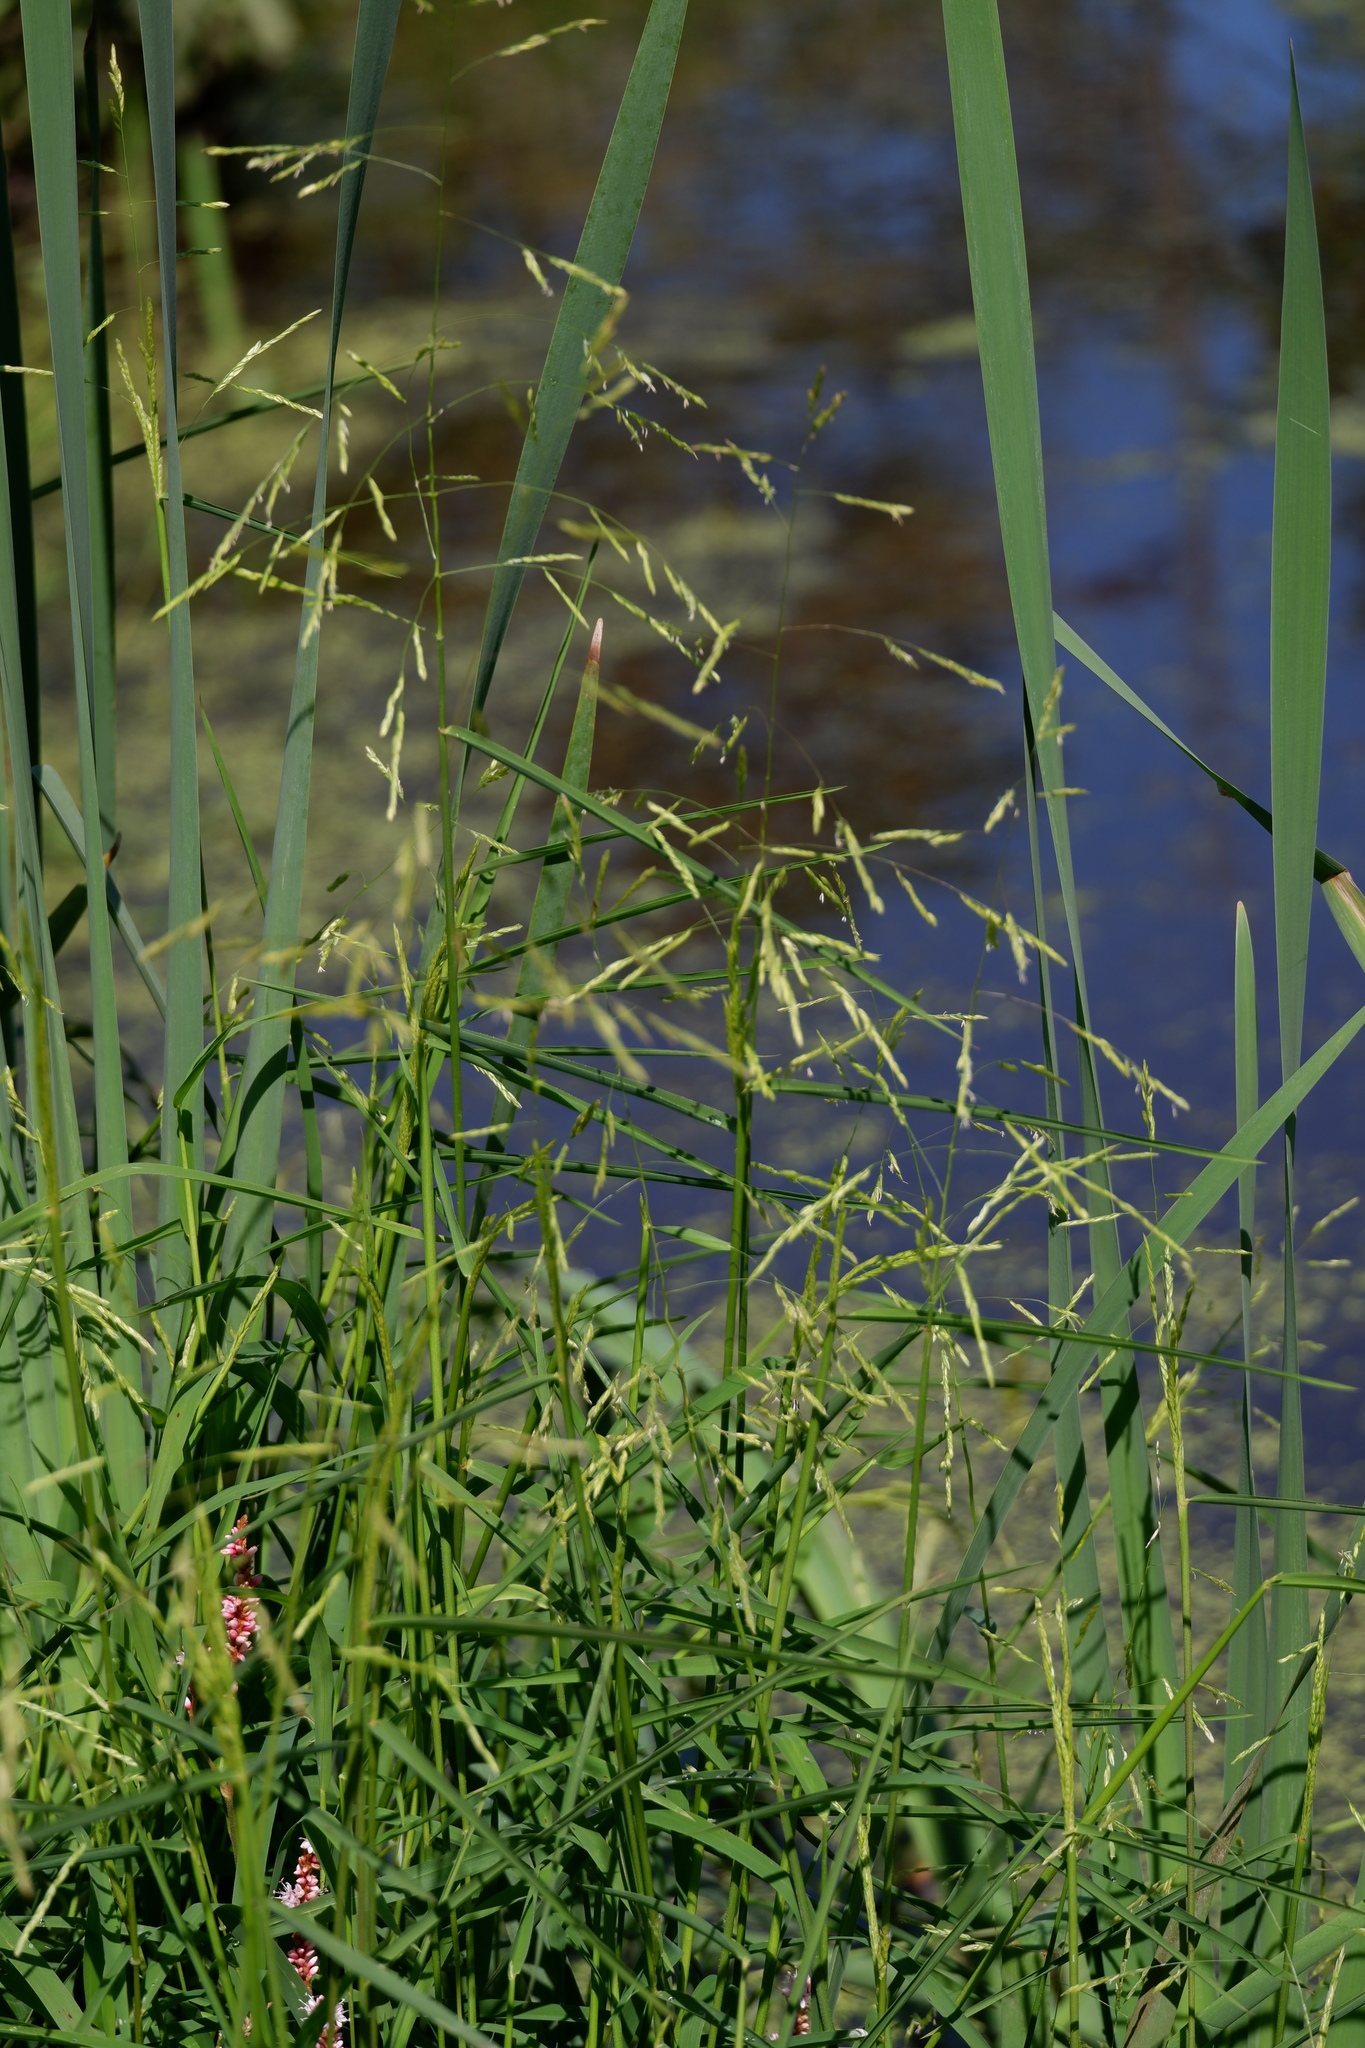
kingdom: Plantae
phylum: Tracheophyta
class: Liliopsida
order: Poales
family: Poaceae
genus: Leersia
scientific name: Leersia oryzoides
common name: Cut-grass
